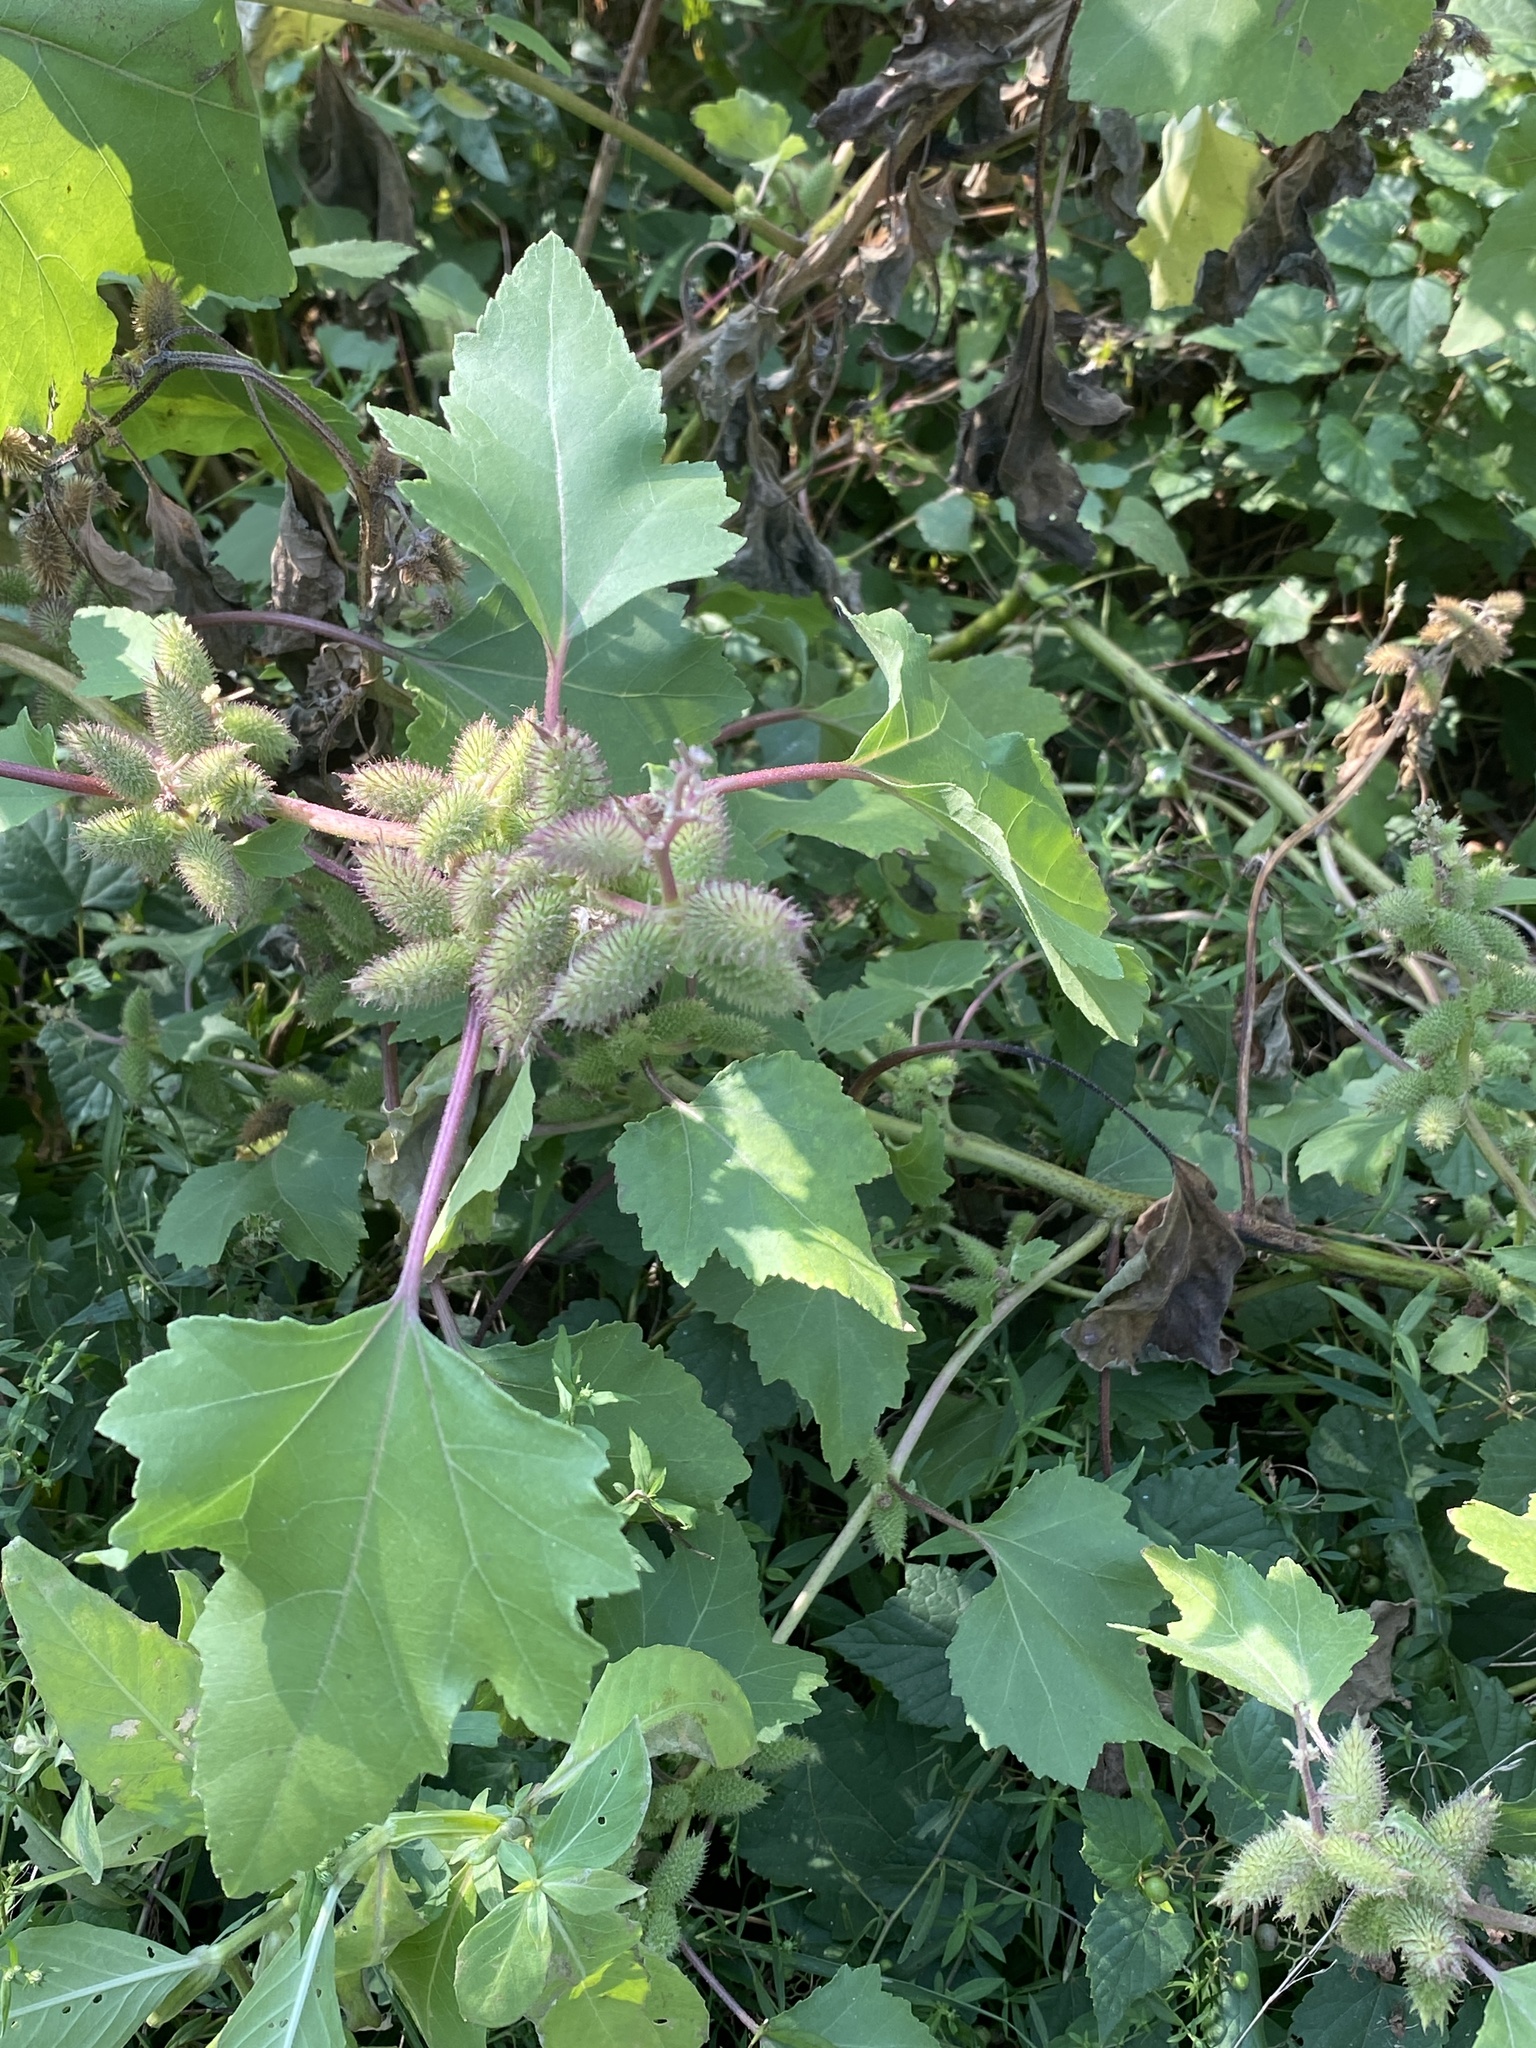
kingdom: Plantae
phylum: Tracheophyta
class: Magnoliopsida
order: Asterales
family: Asteraceae
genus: Xanthium
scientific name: Xanthium strumarium
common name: Rough cocklebur
